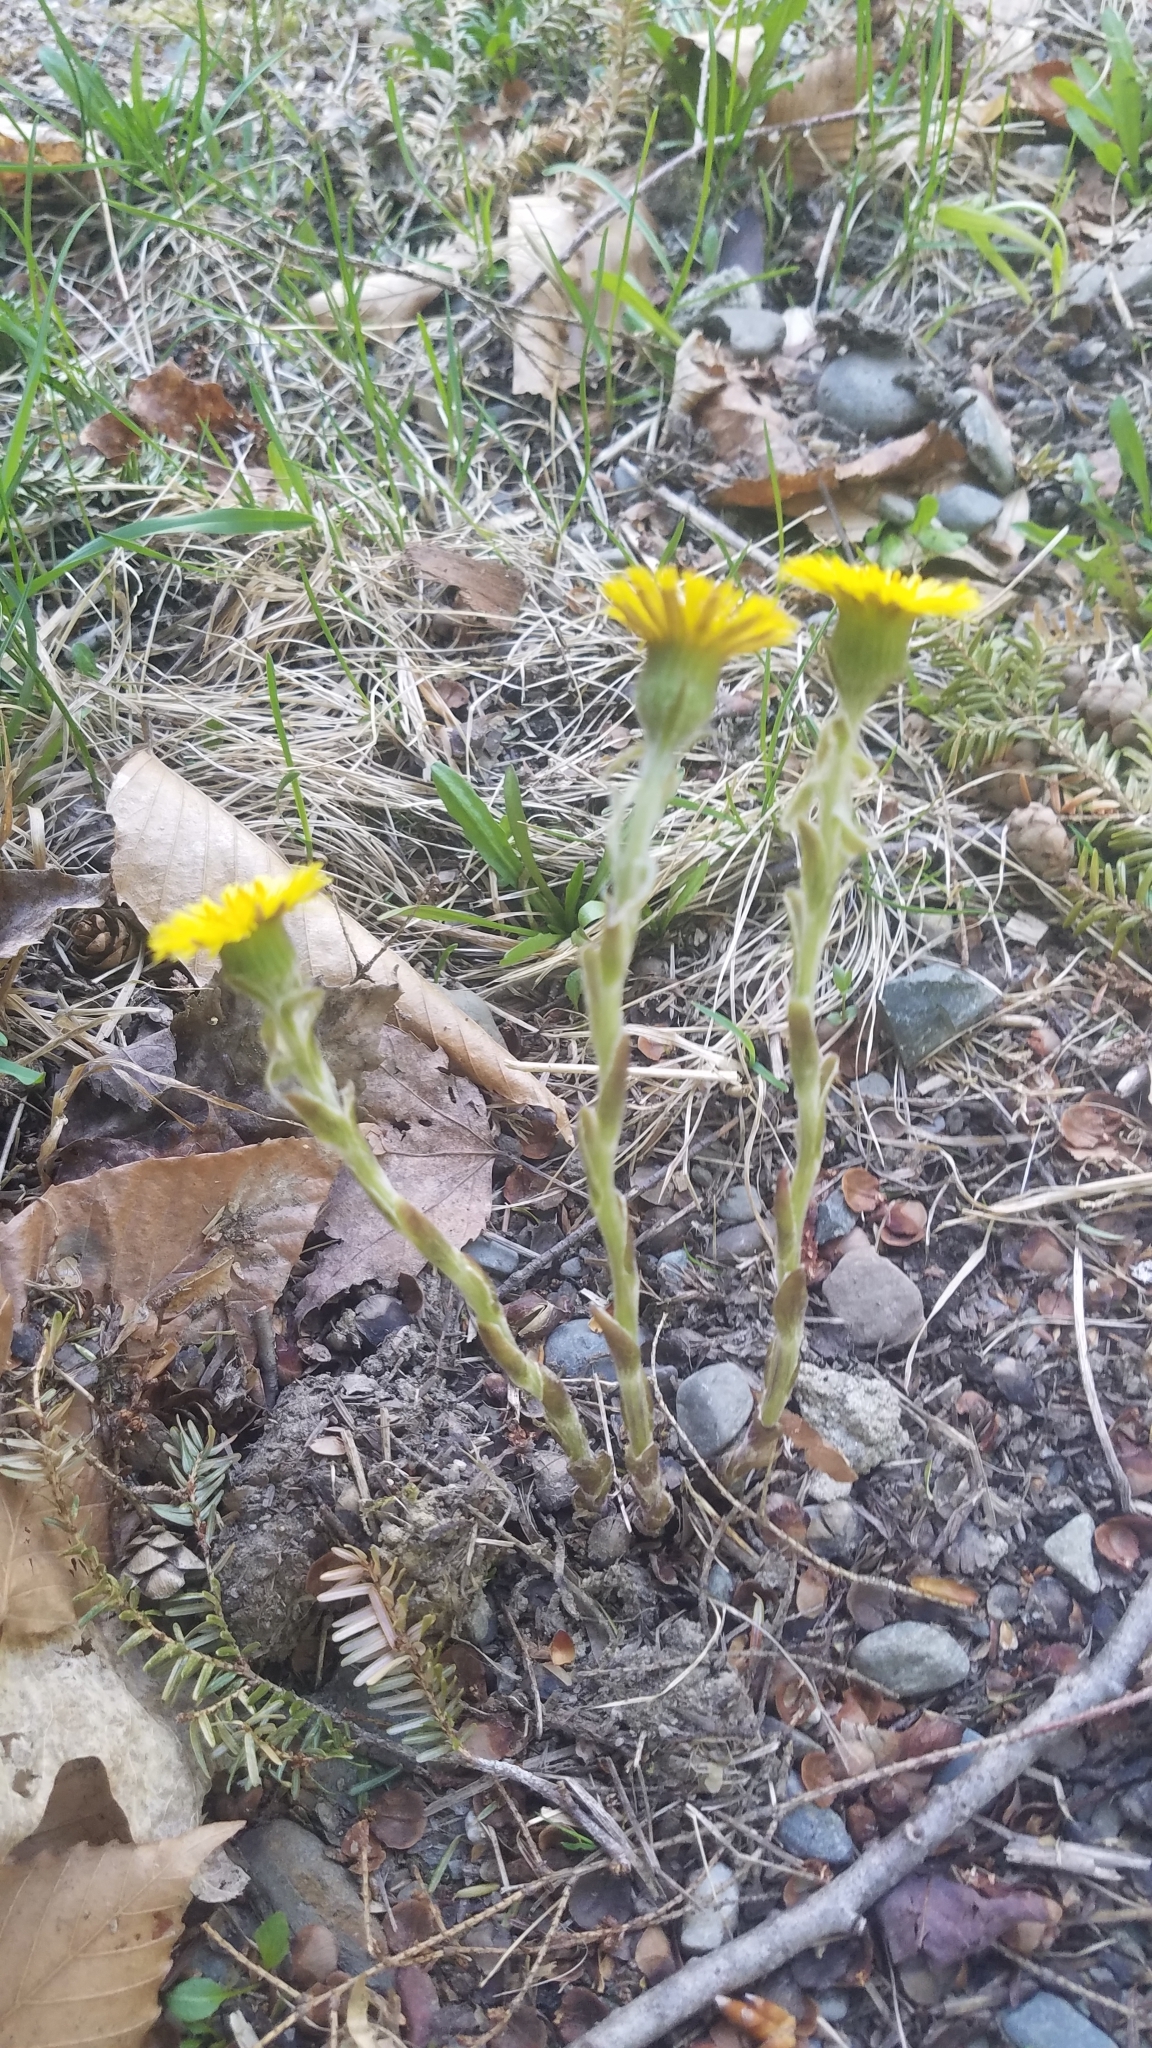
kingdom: Plantae
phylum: Tracheophyta
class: Magnoliopsida
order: Asterales
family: Asteraceae
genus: Tussilago
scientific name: Tussilago farfara
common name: Coltsfoot
